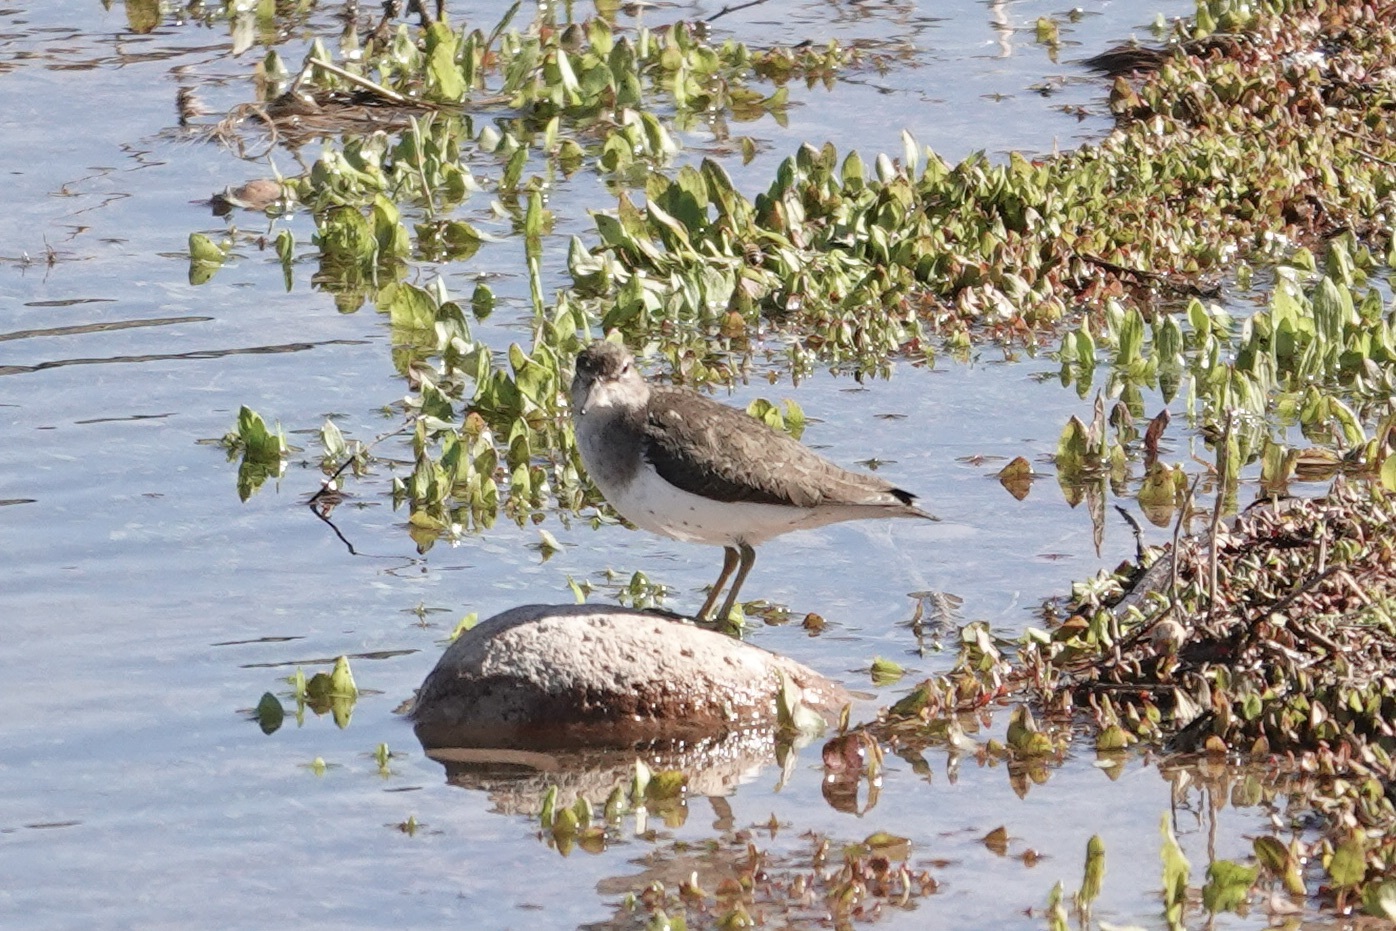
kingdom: Animalia
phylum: Chordata
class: Aves
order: Charadriiformes
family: Scolopacidae
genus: Actitis
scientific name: Actitis macularius
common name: Spotted sandpiper
